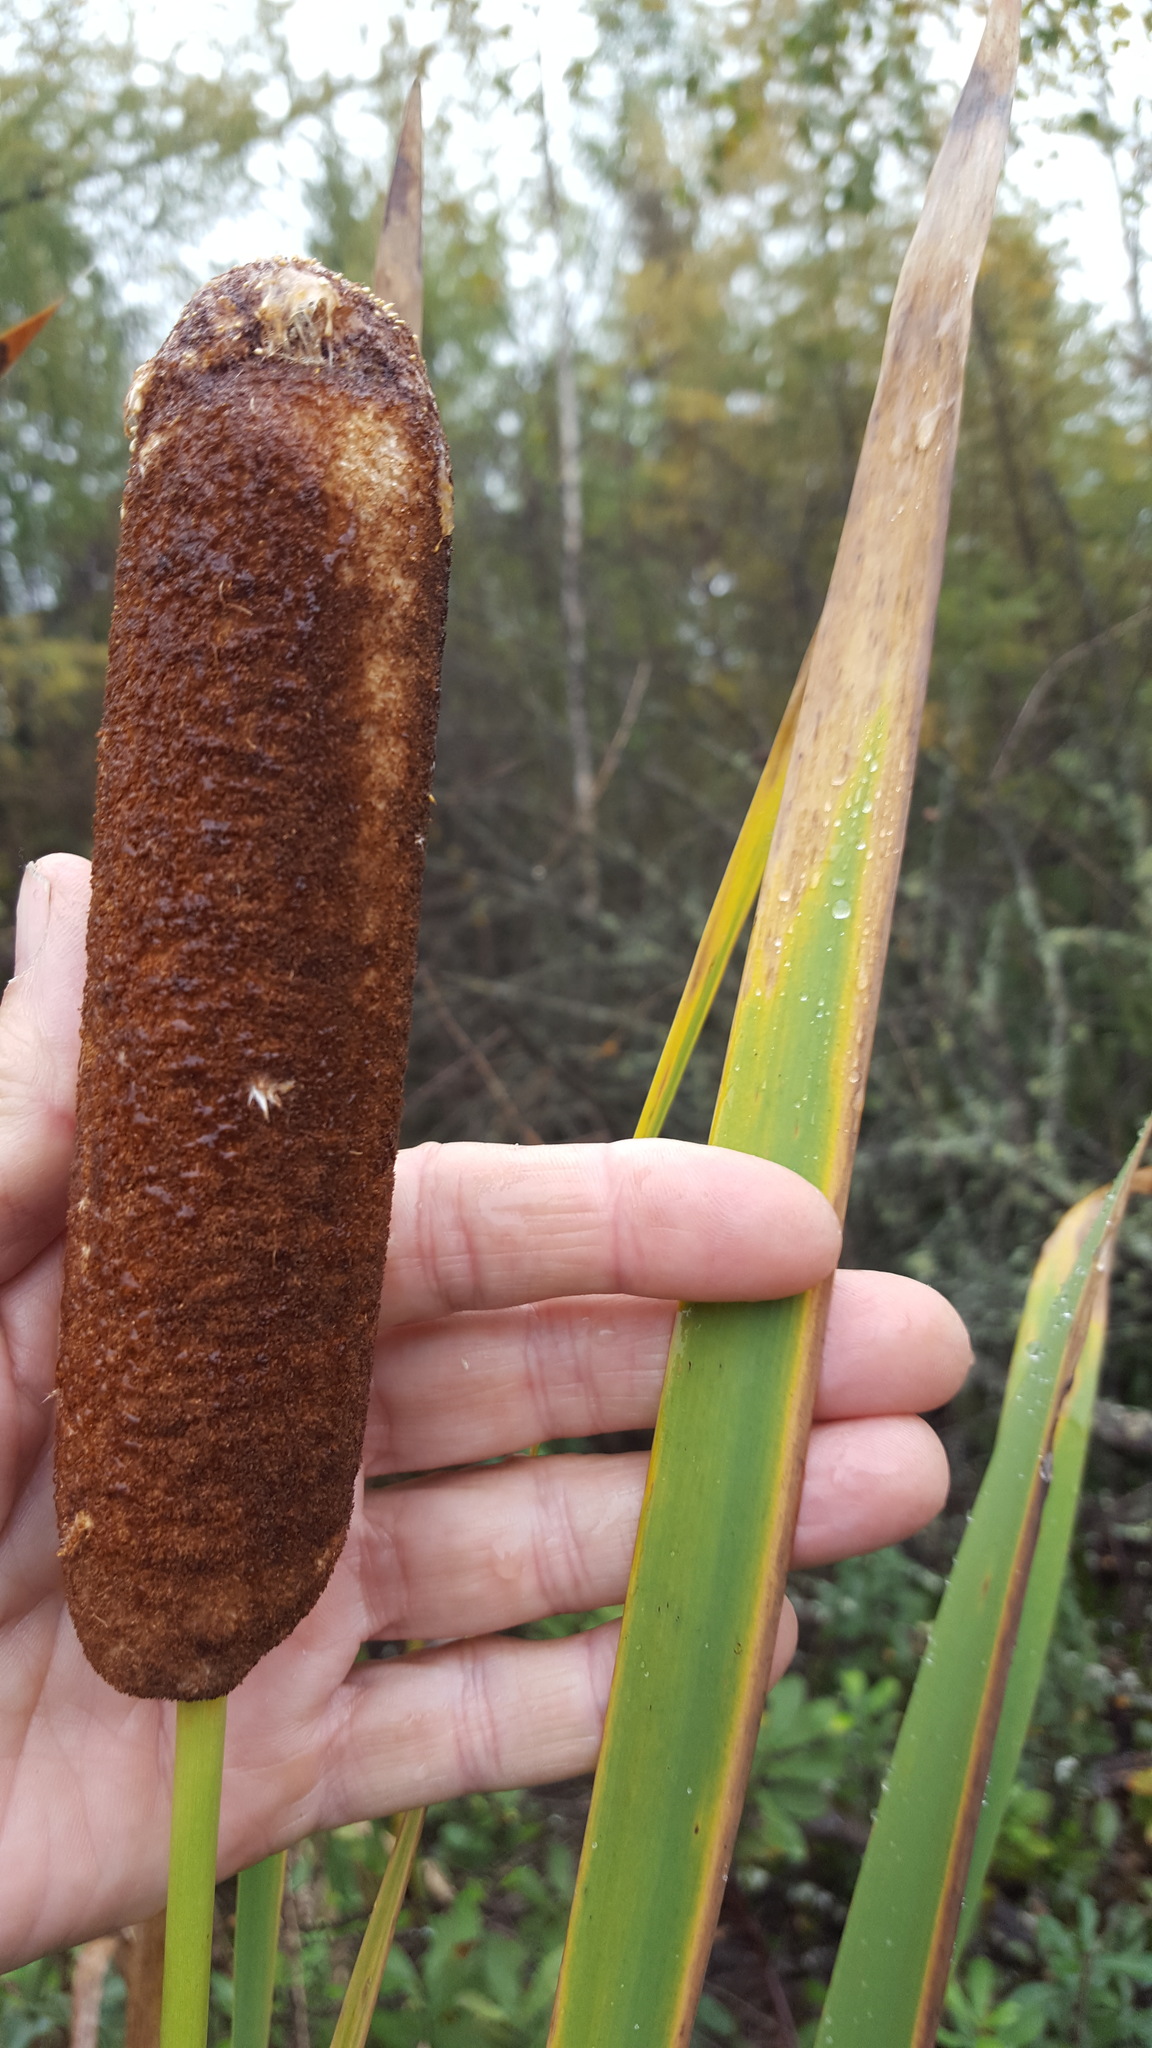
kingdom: Plantae
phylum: Tracheophyta
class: Liliopsida
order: Poales
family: Typhaceae
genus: Typha
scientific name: Typha latifolia
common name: Broadleaf cattail
